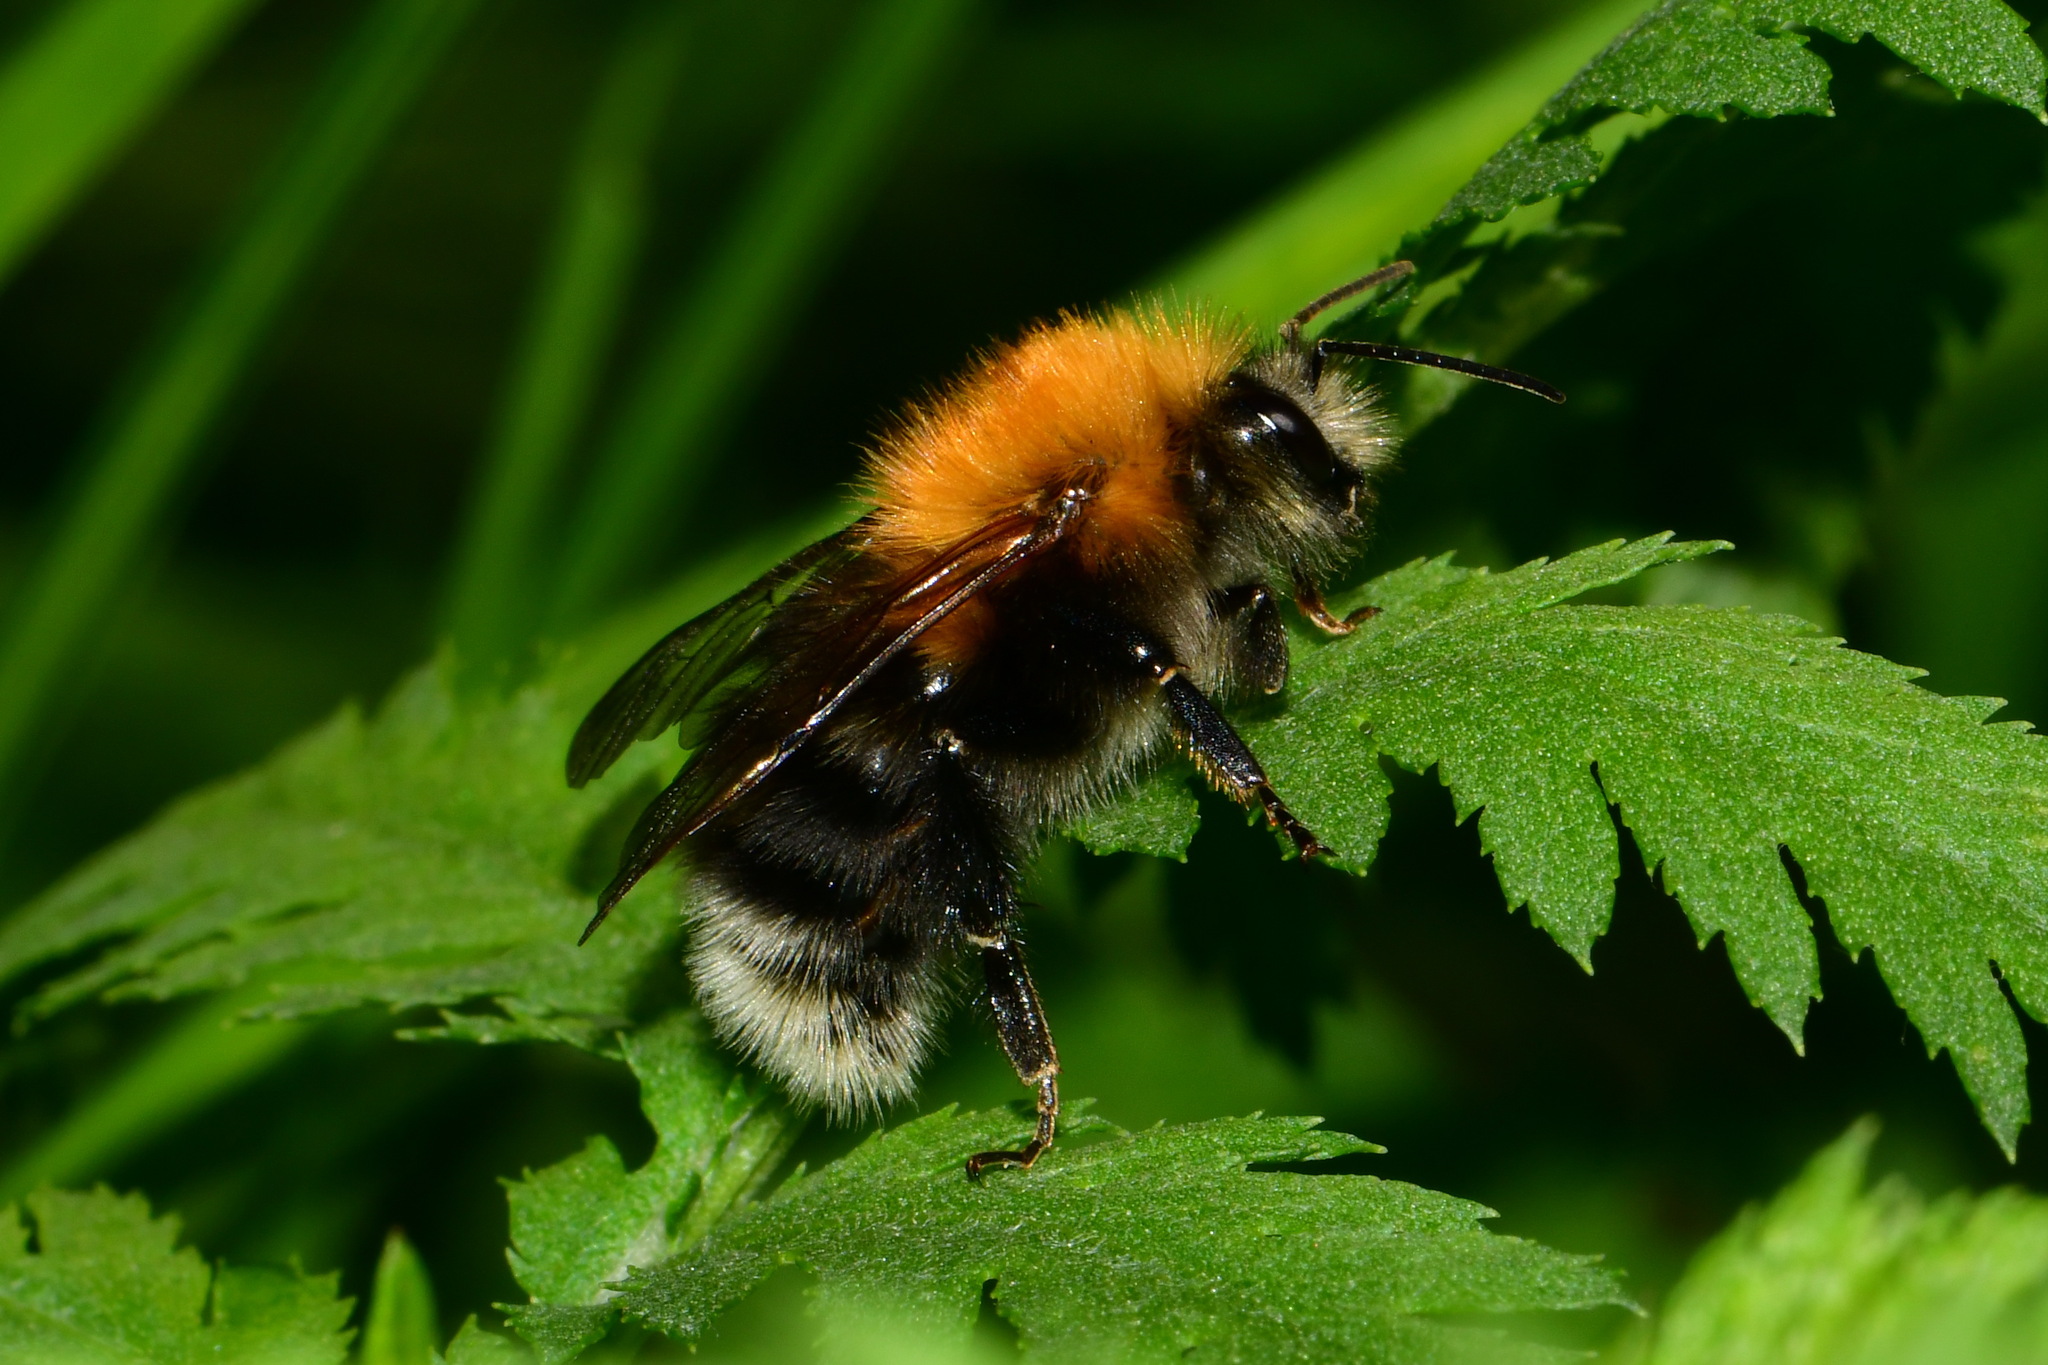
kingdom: Animalia
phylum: Arthropoda
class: Insecta
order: Hymenoptera
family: Apidae
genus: Bombus
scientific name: Bombus hypnorum
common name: New garden bumblebee
